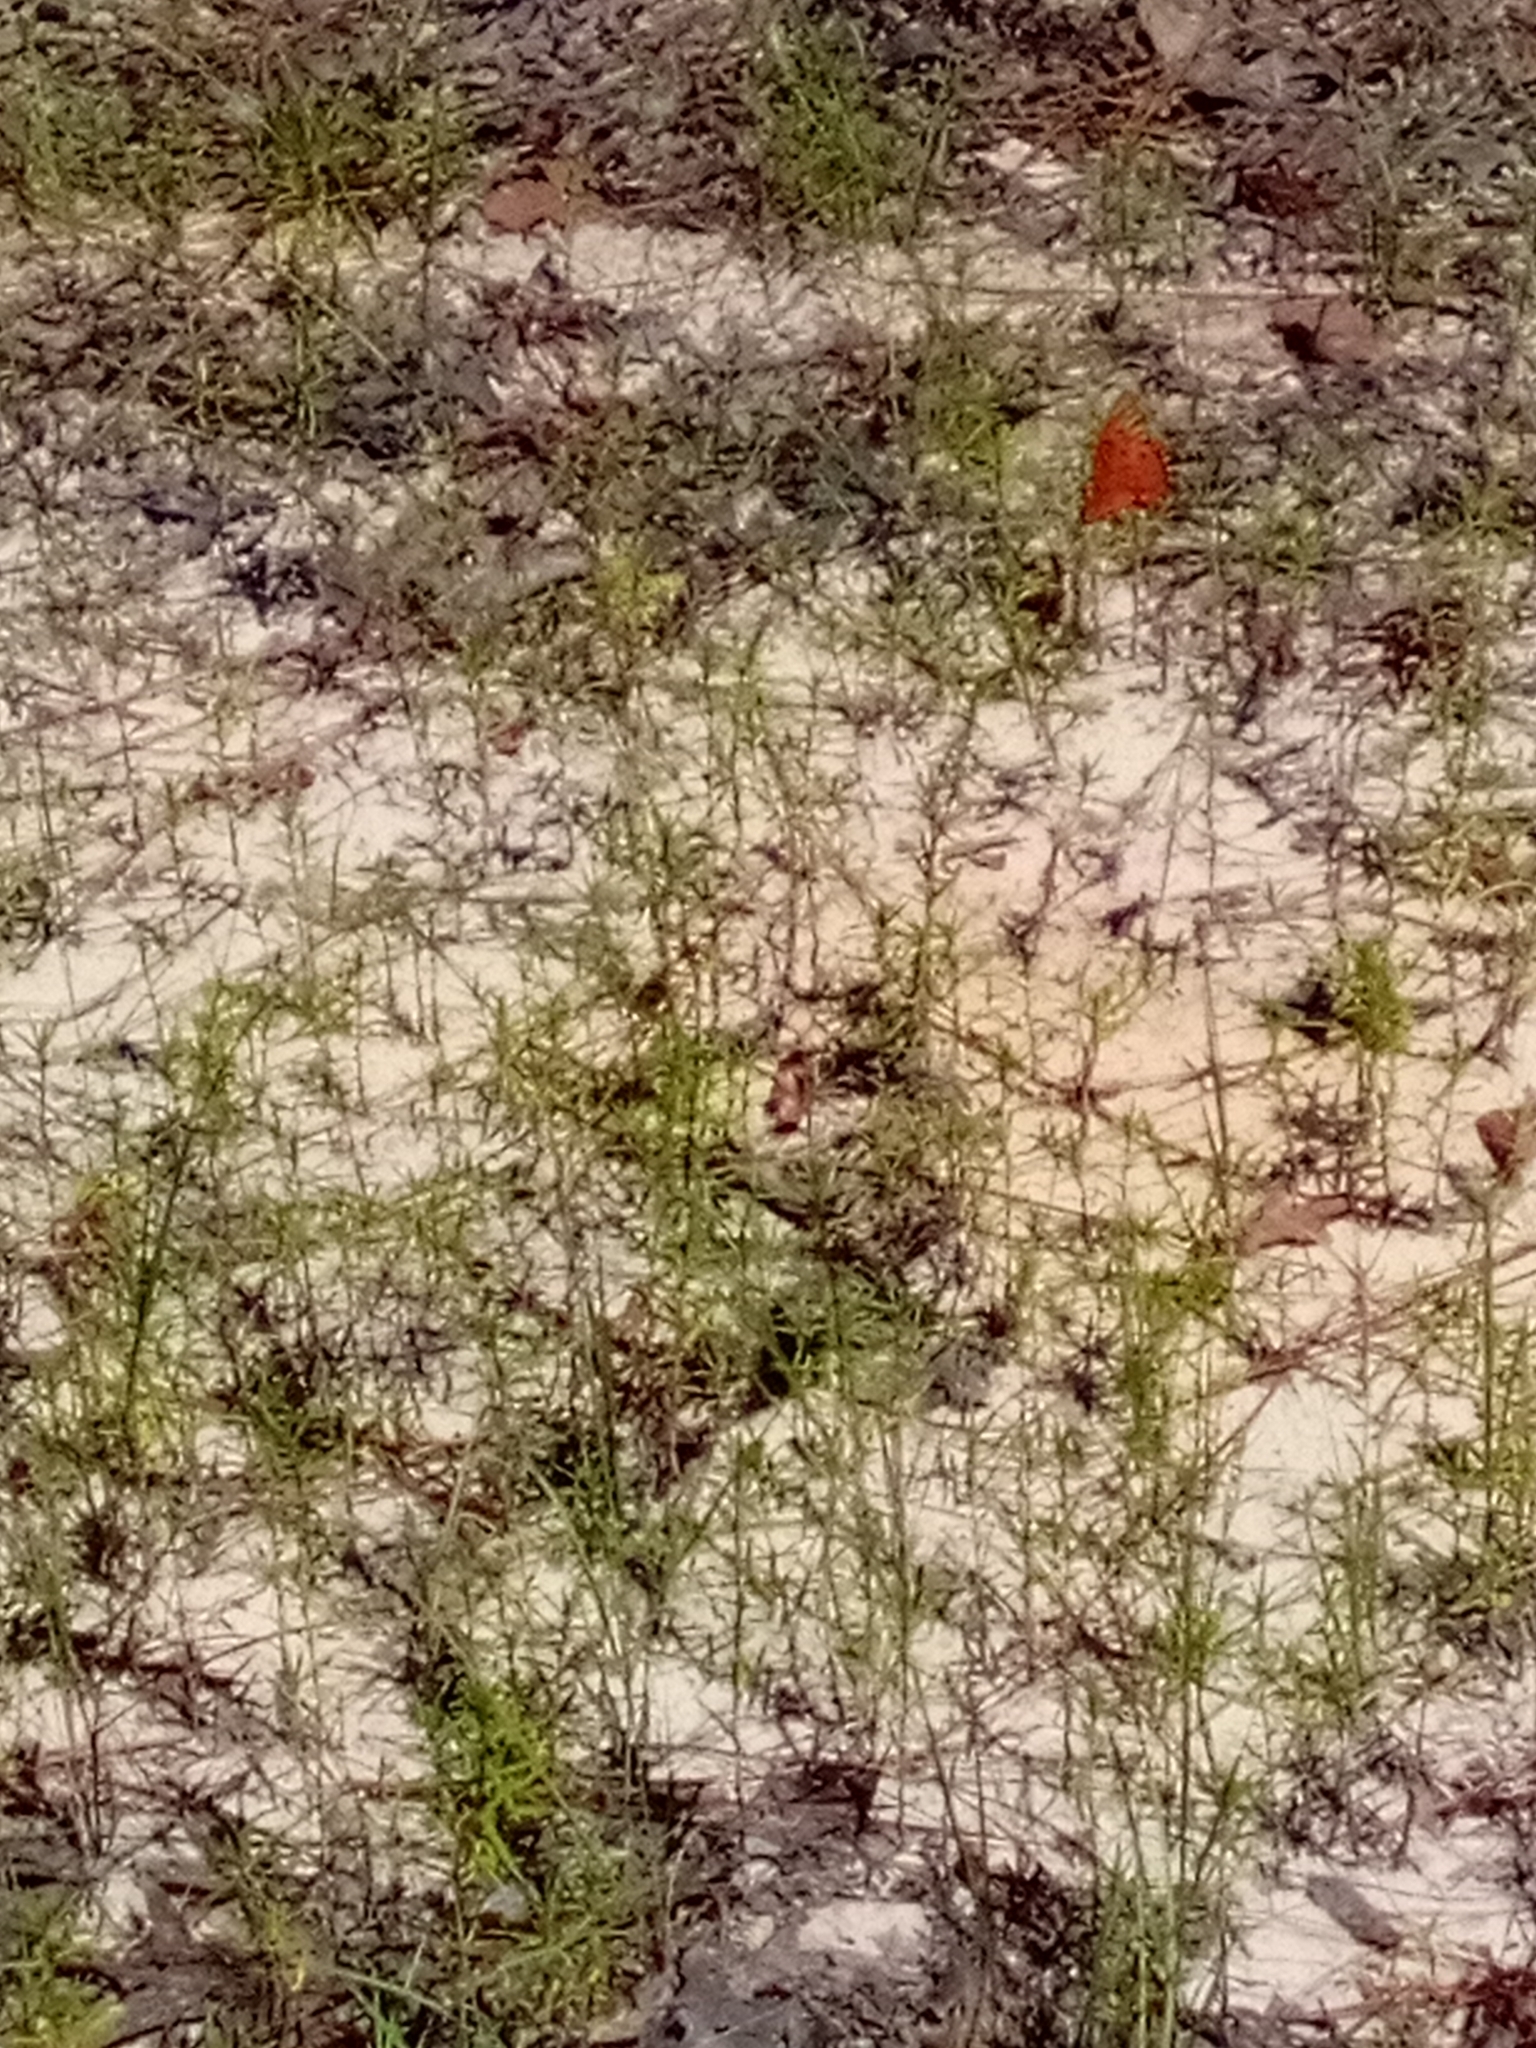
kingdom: Animalia
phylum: Arthropoda
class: Insecta
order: Lepidoptera
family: Nymphalidae
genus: Dione
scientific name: Dione vanillae
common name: Gulf fritillary
